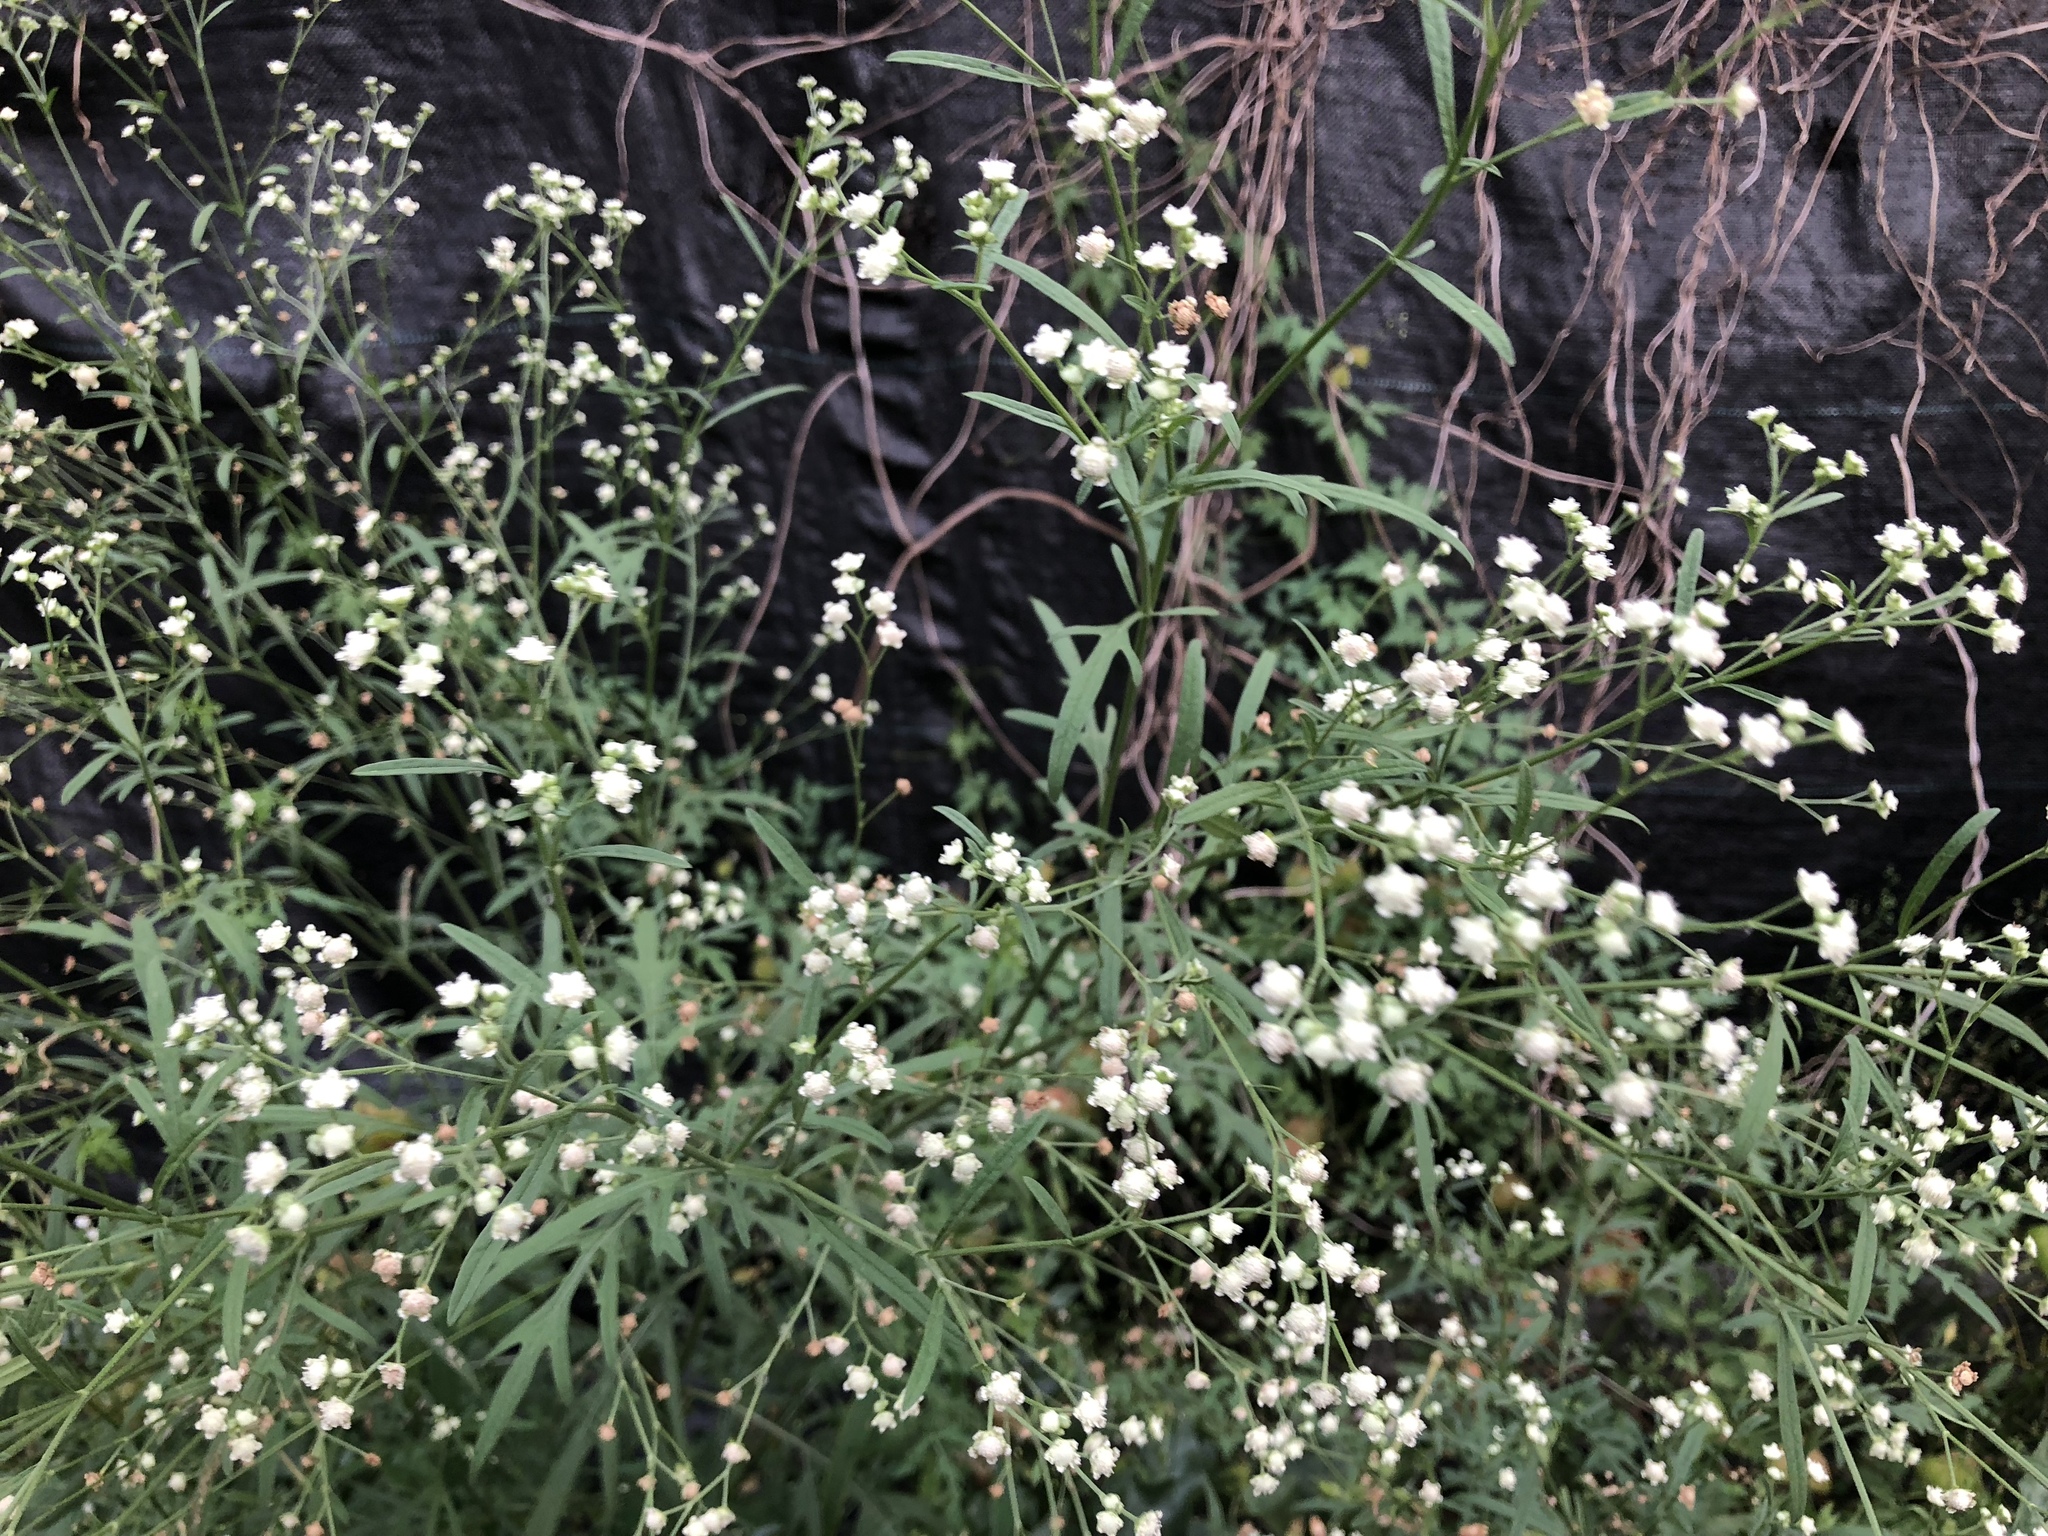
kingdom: Plantae
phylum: Tracheophyta
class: Magnoliopsida
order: Asterales
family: Asteraceae
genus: Parthenium
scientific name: Parthenium hysterophorus
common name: Santa maria feverfew
